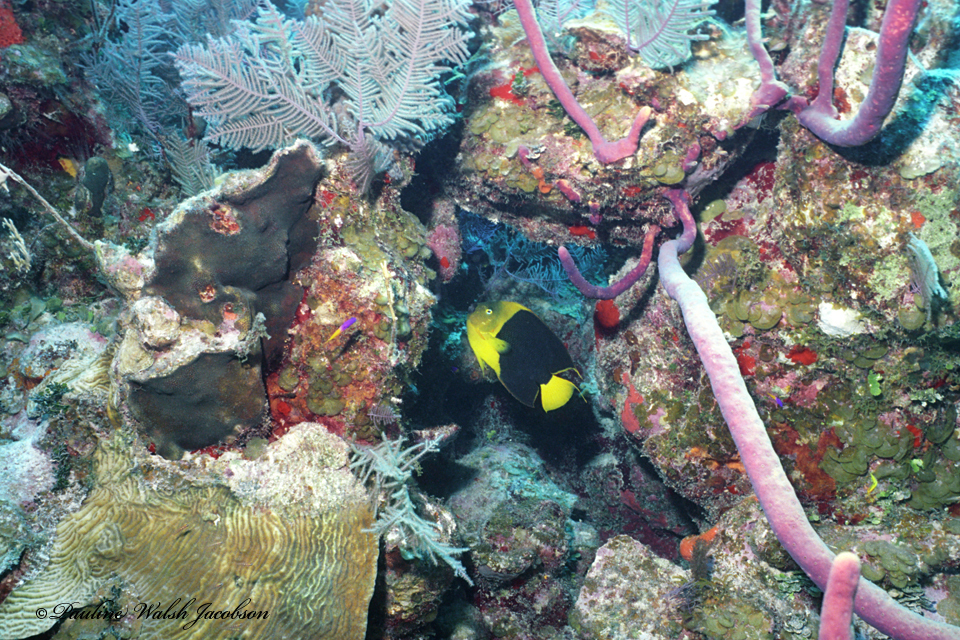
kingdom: Animalia
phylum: Chordata
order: Perciformes
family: Pomacanthidae
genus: Holacanthus
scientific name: Holacanthus tricolor
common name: Rock beauty
